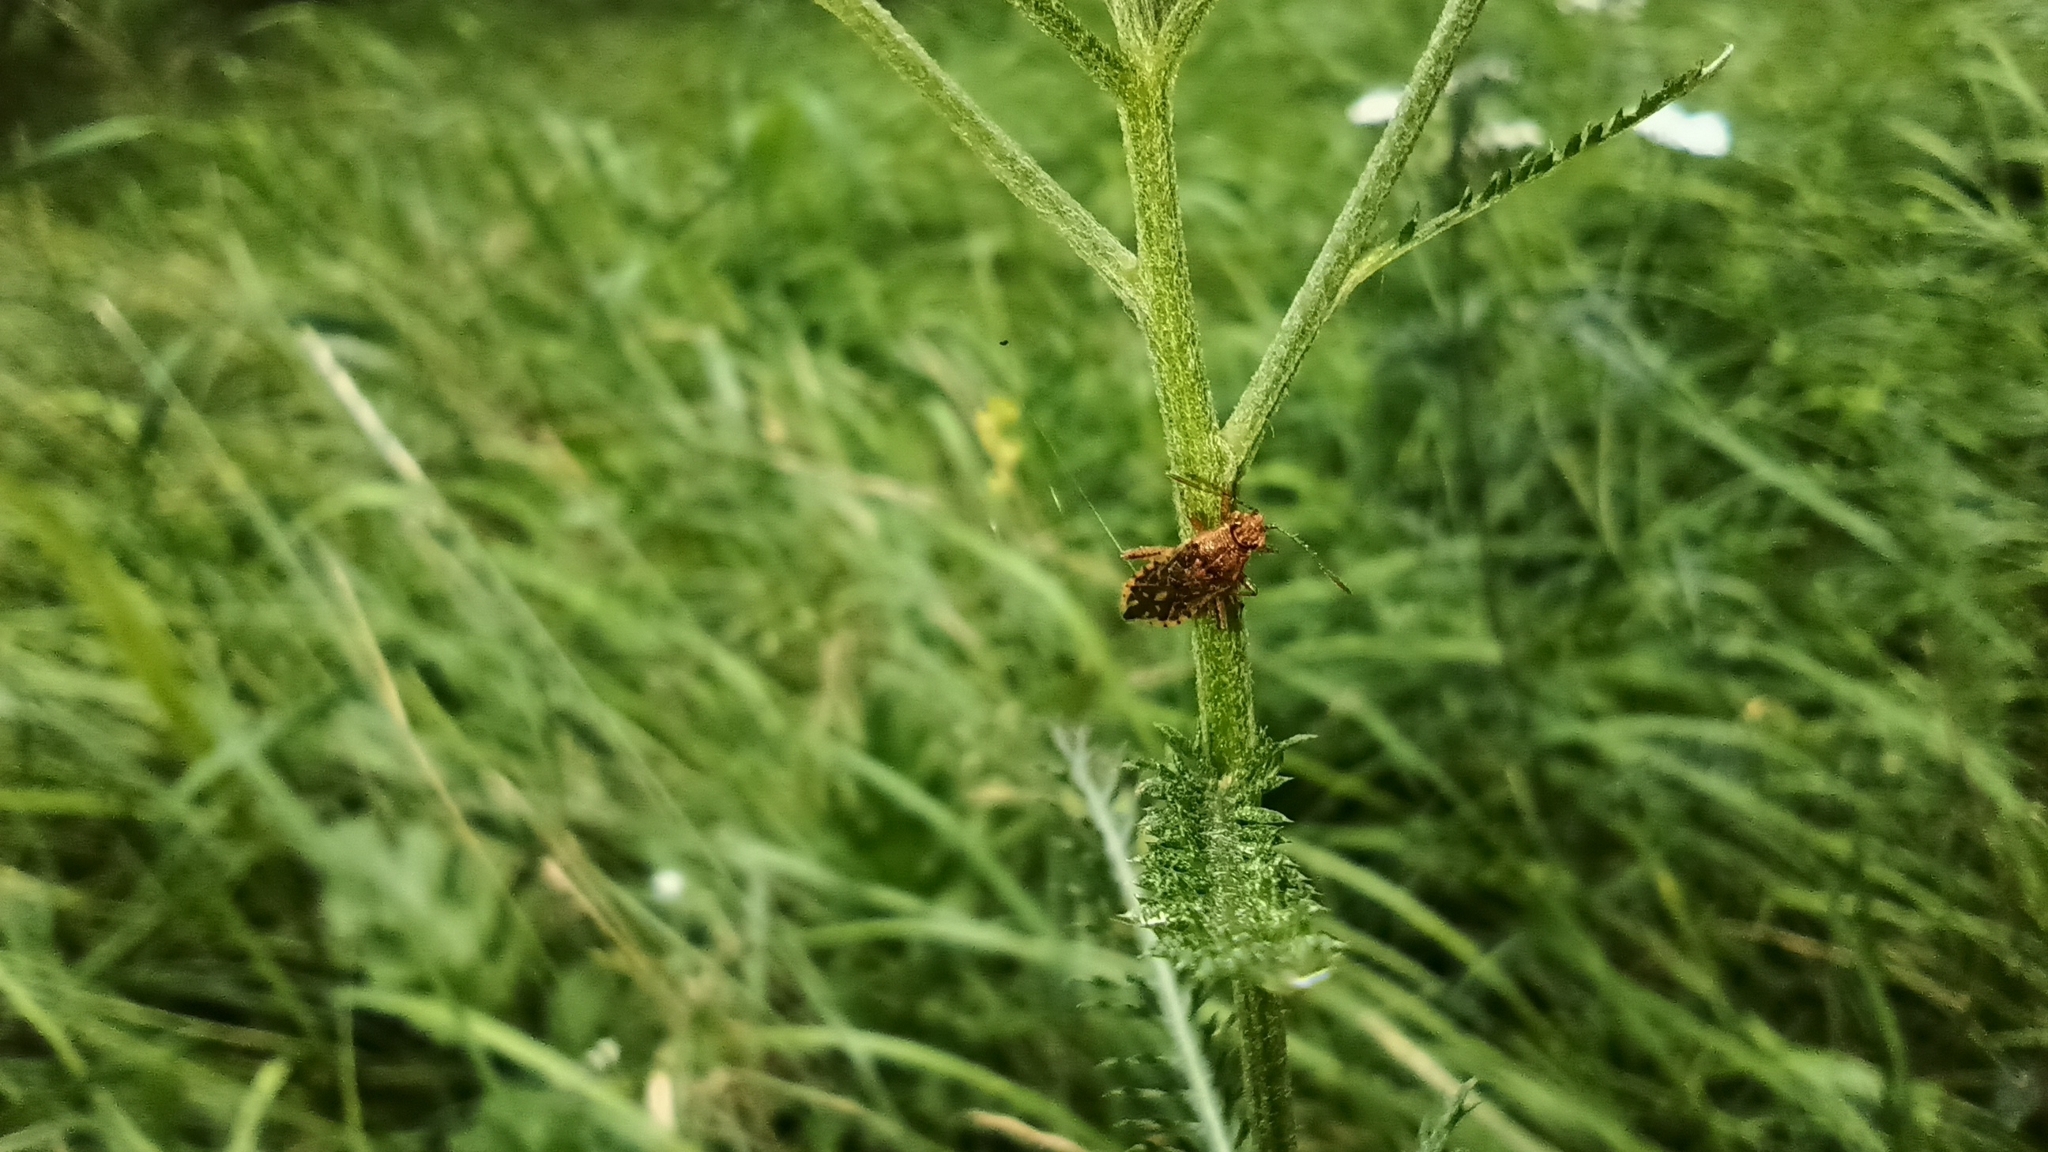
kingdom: Animalia
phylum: Arthropoda
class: Insecta
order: Hemiptera
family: Rhopalidae
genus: Rhopalus
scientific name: Rhopalus parumpunctatus
